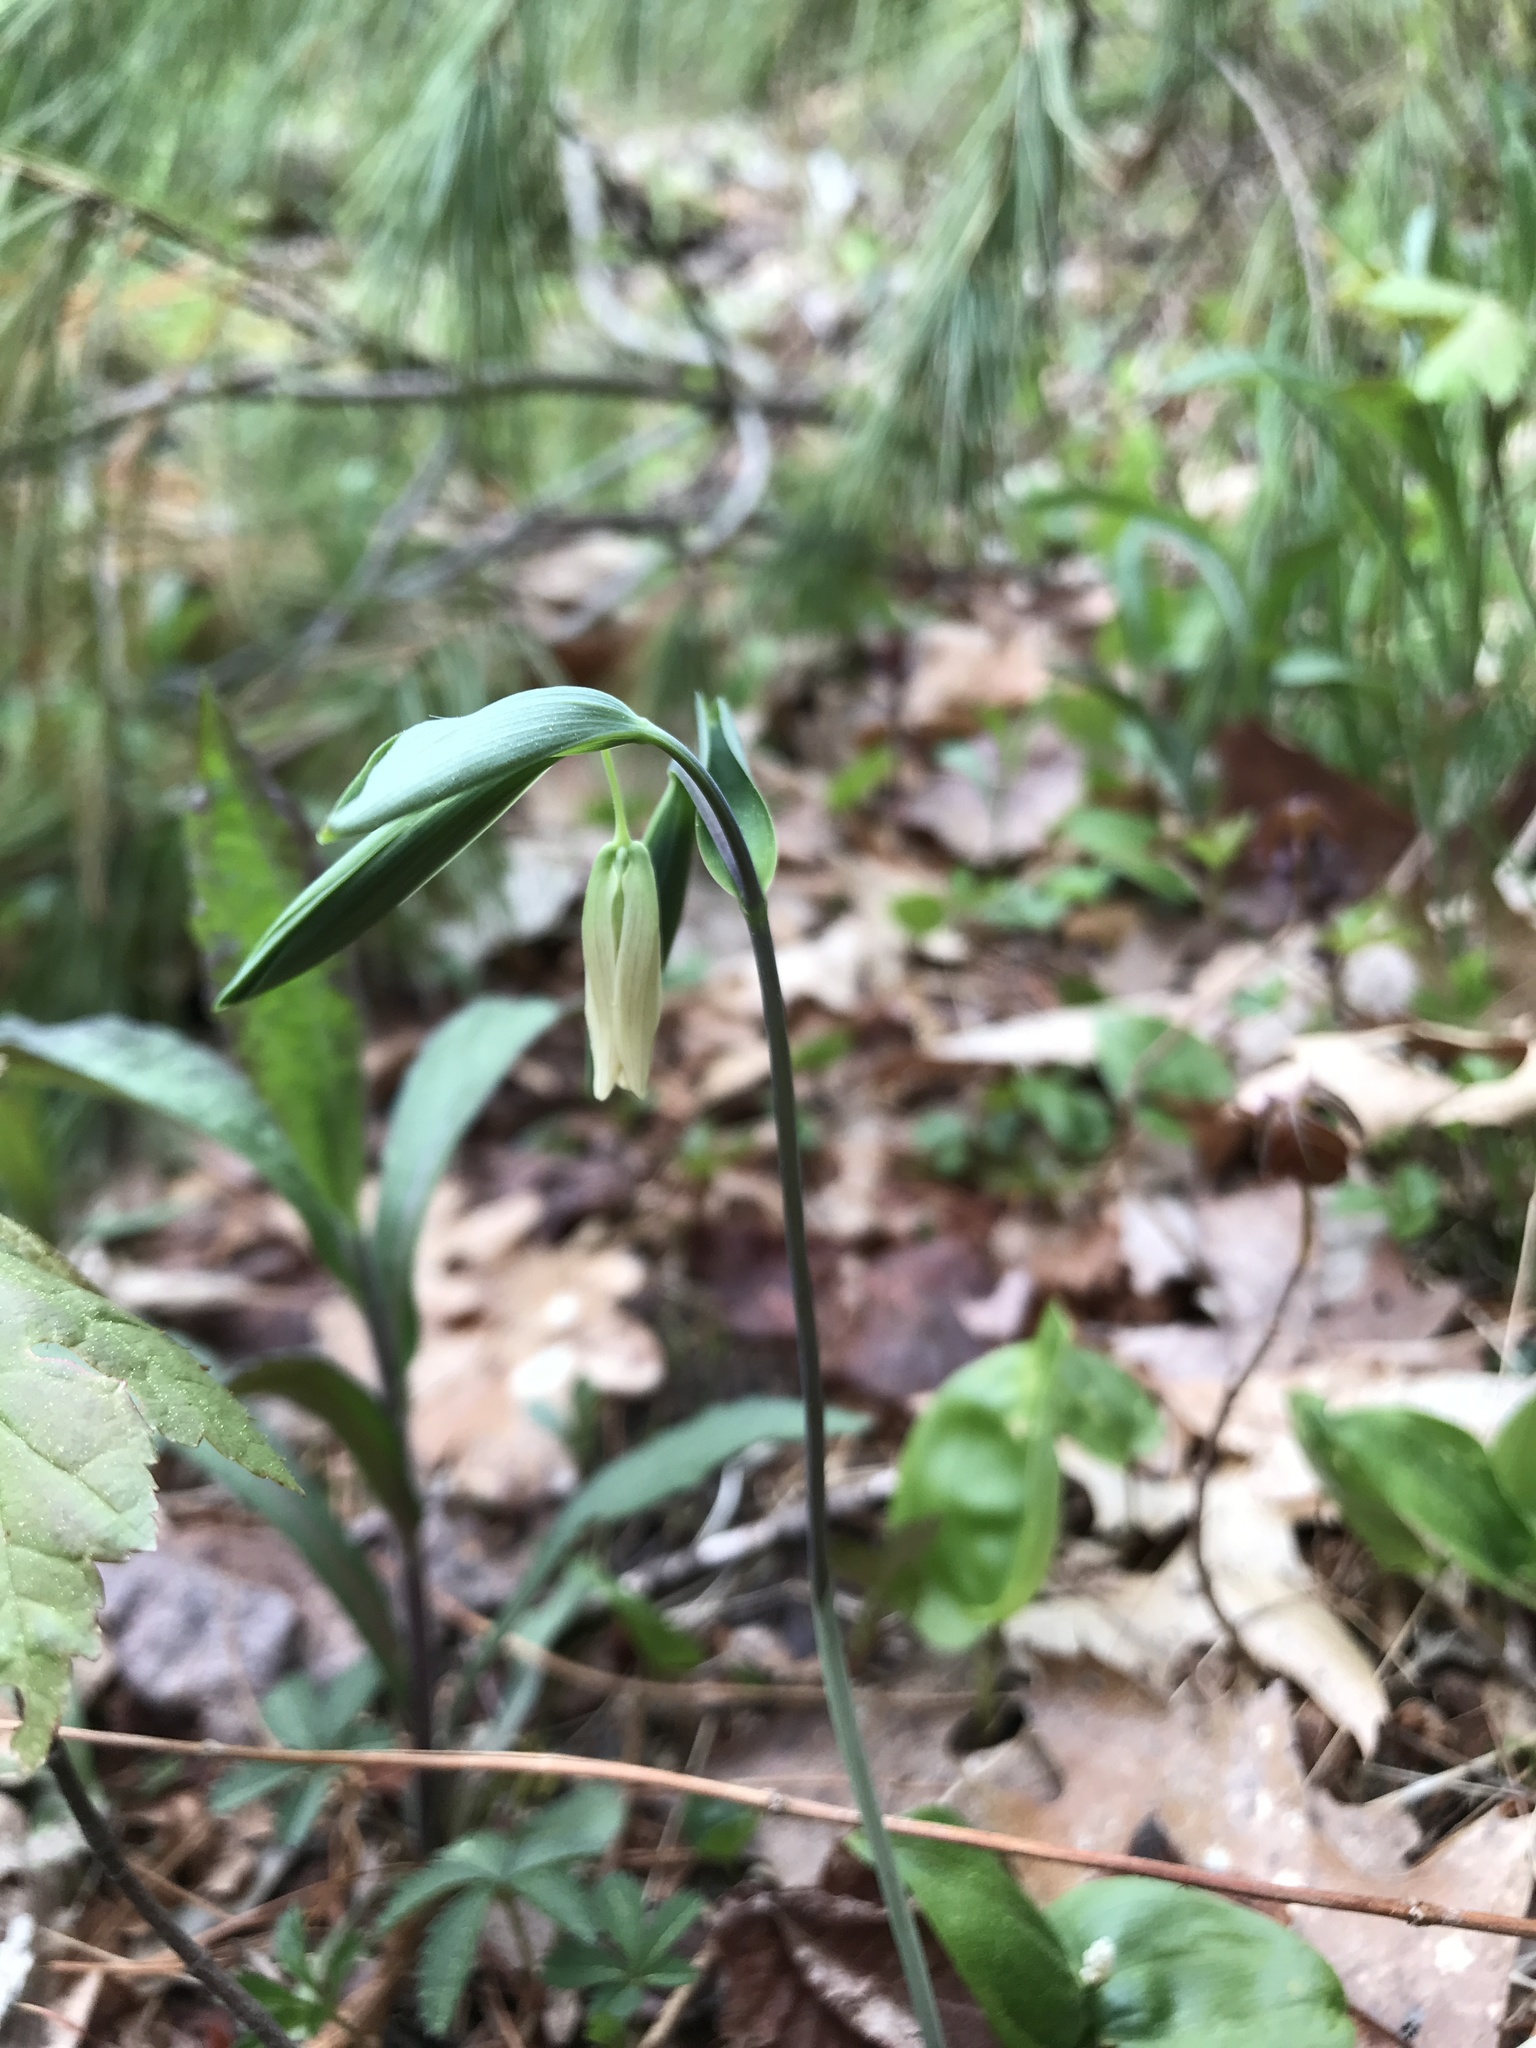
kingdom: Plantae
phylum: Tracheophyta
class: Liliopsida
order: Liliales
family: Colchicaceae
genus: Uvularia
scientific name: Uvularia sessilifolia
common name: Straw-lily
